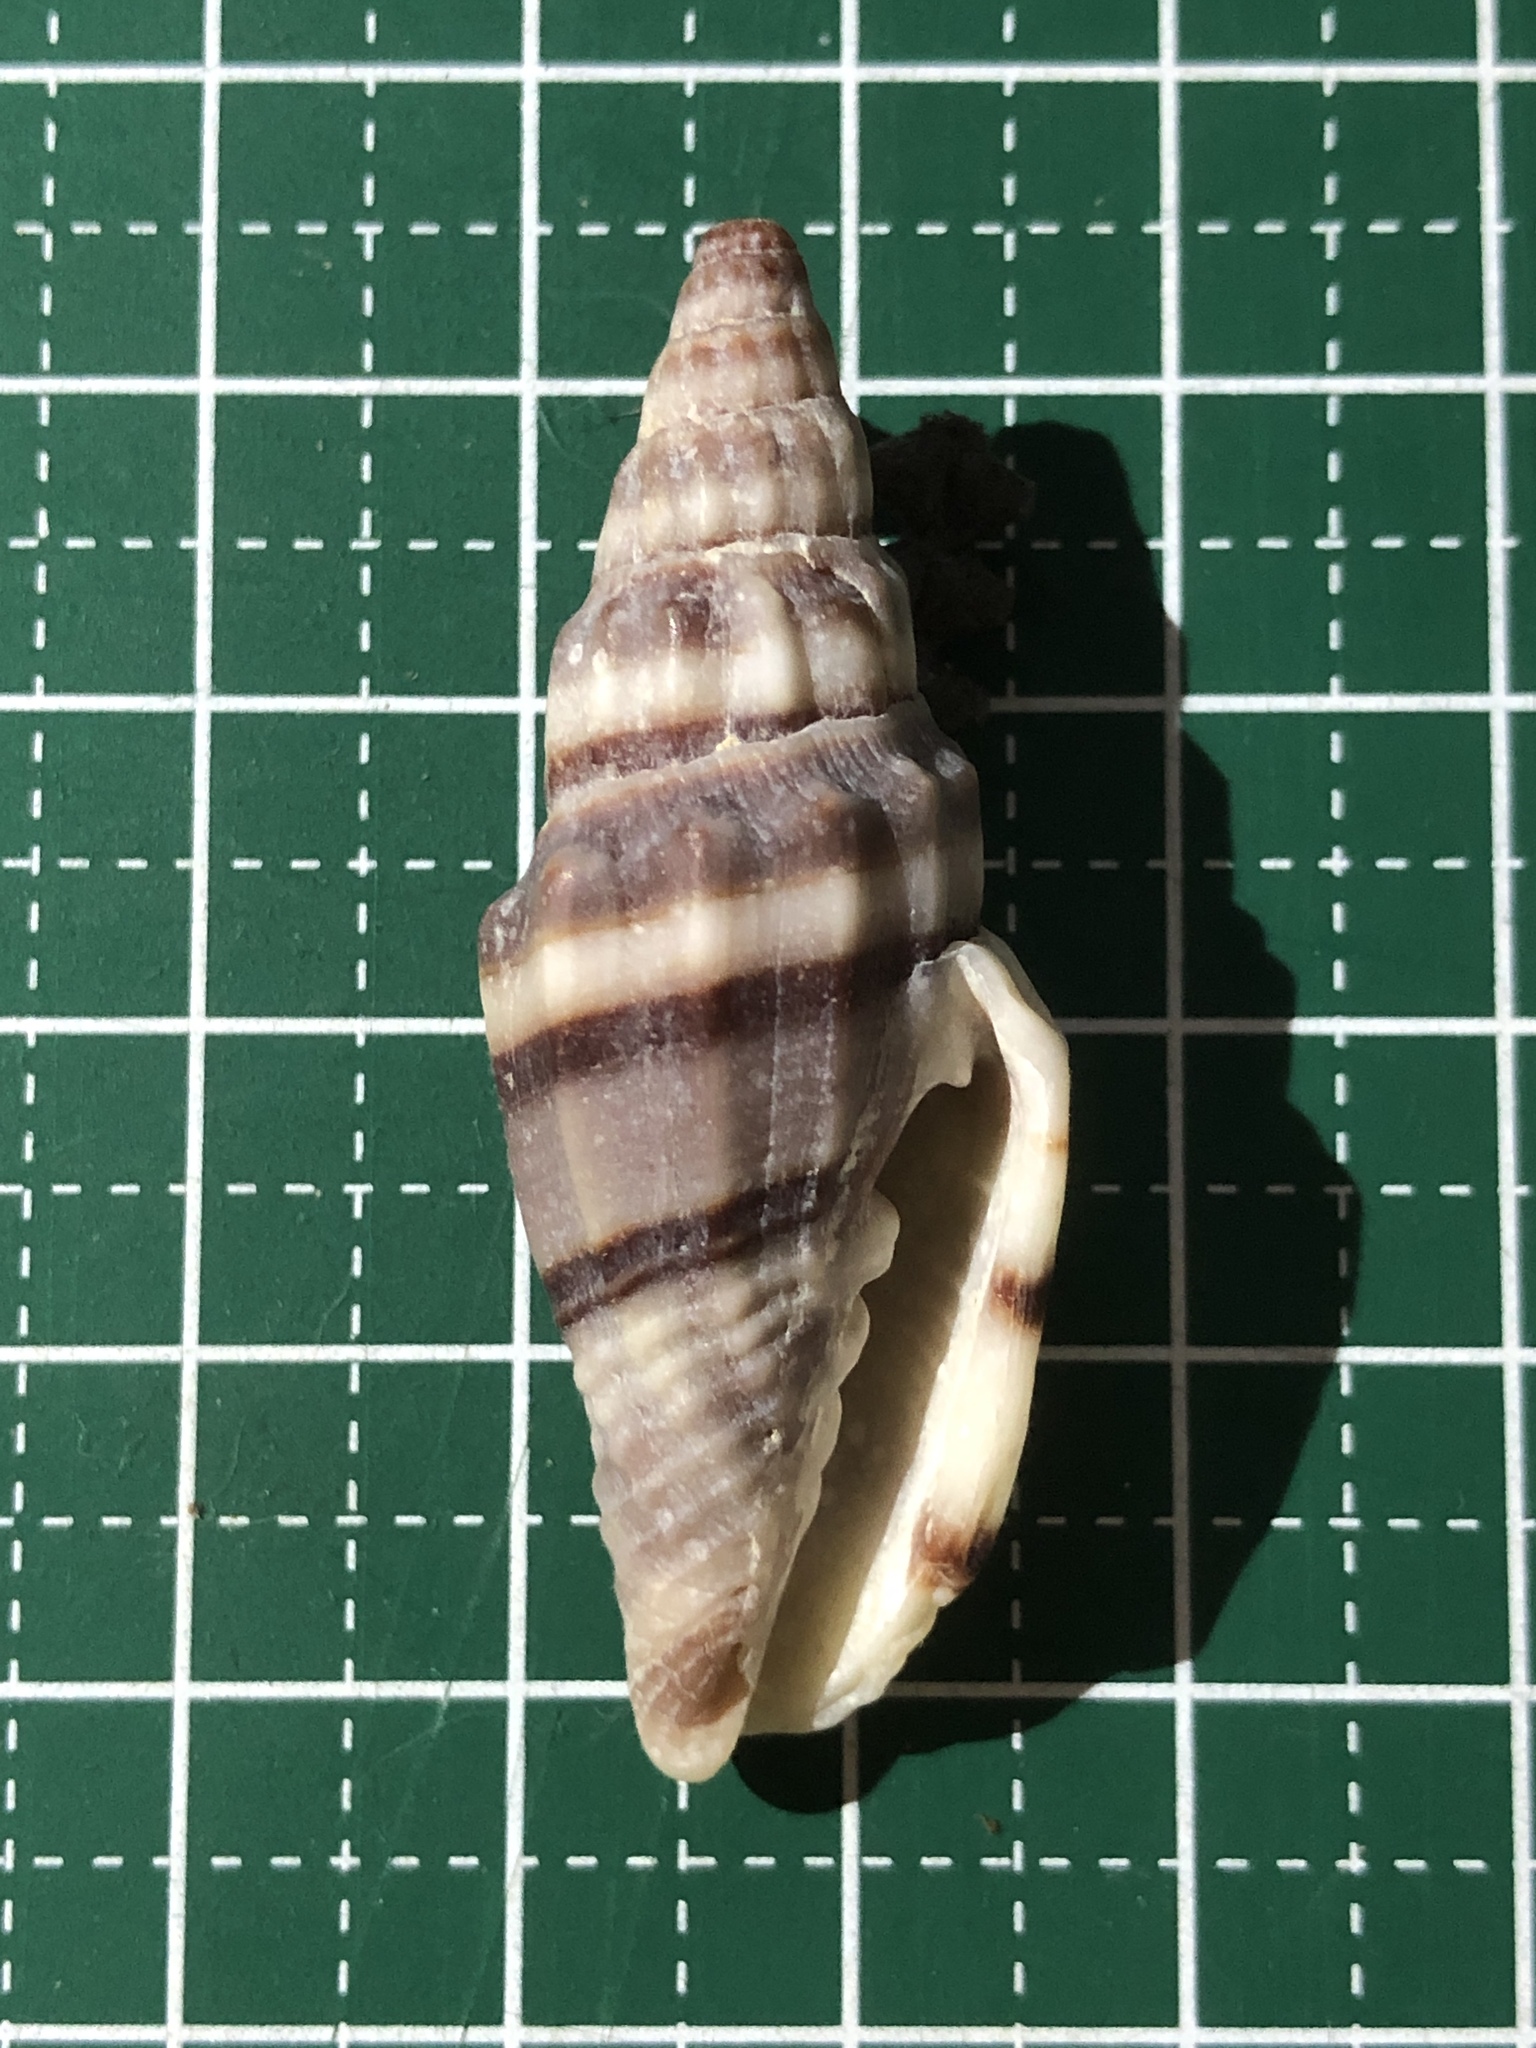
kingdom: Animalia
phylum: Mollusca
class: Gastropoda
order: Neogastropoda
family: Costellariidae
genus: Vexillum
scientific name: Vexillum balteolatum
